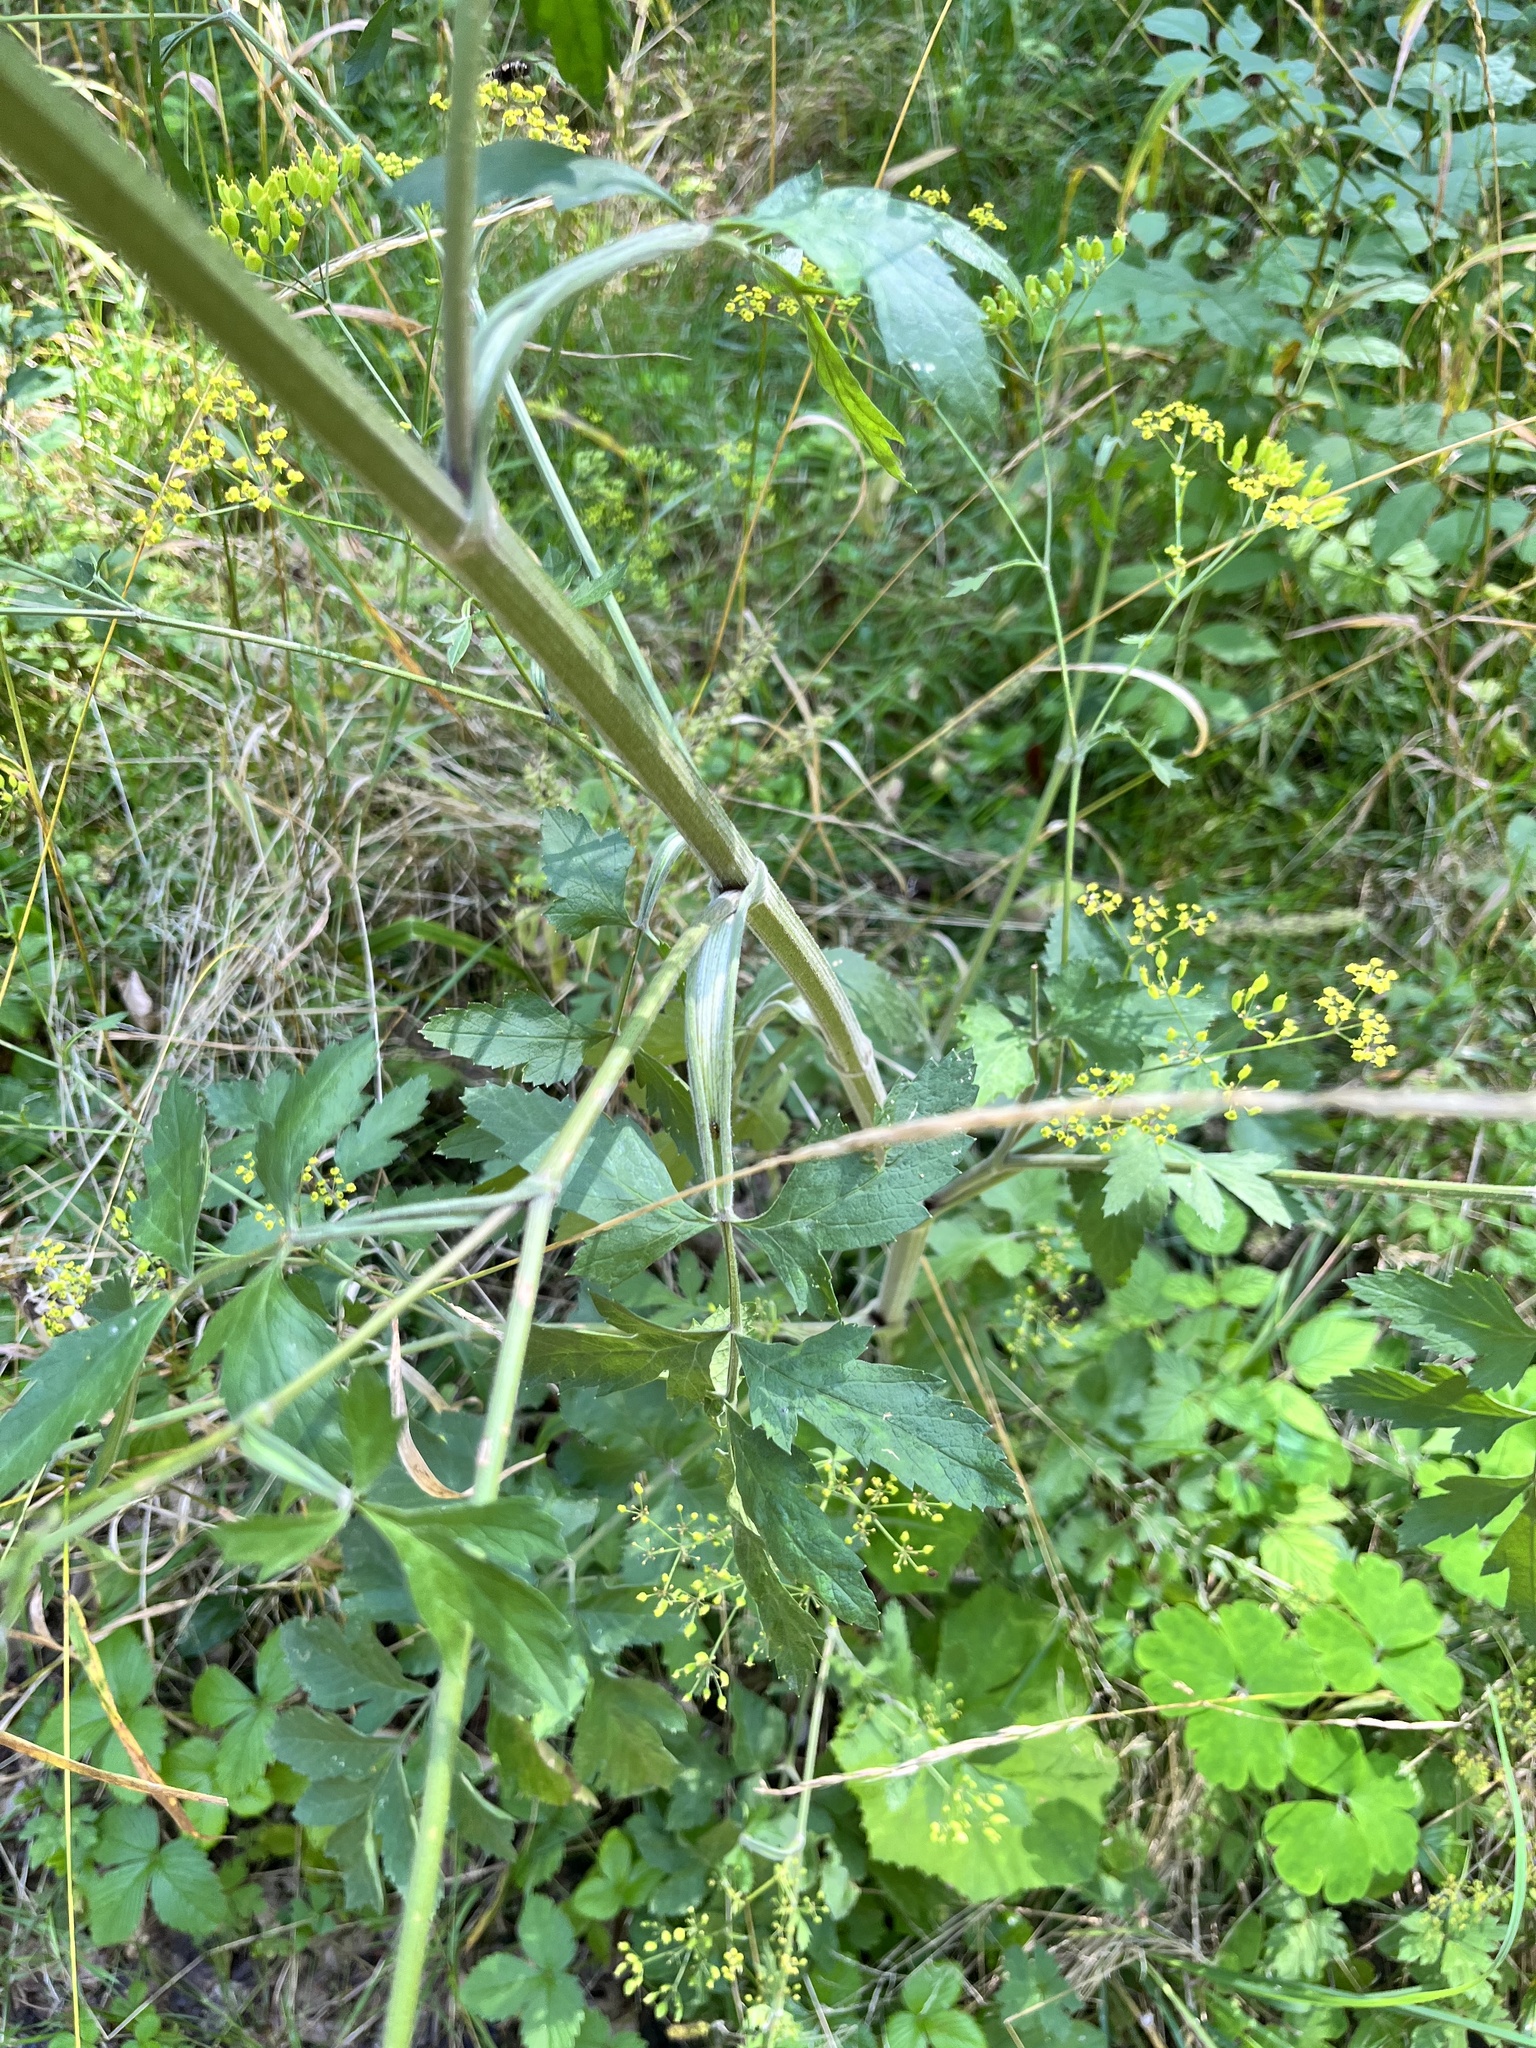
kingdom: Plantae
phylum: Tracheophyta
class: Magnoliopsida
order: Apiales
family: Apiaceae
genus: Pastinaca
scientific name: Pastinaca sativa
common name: Wild parsnip
